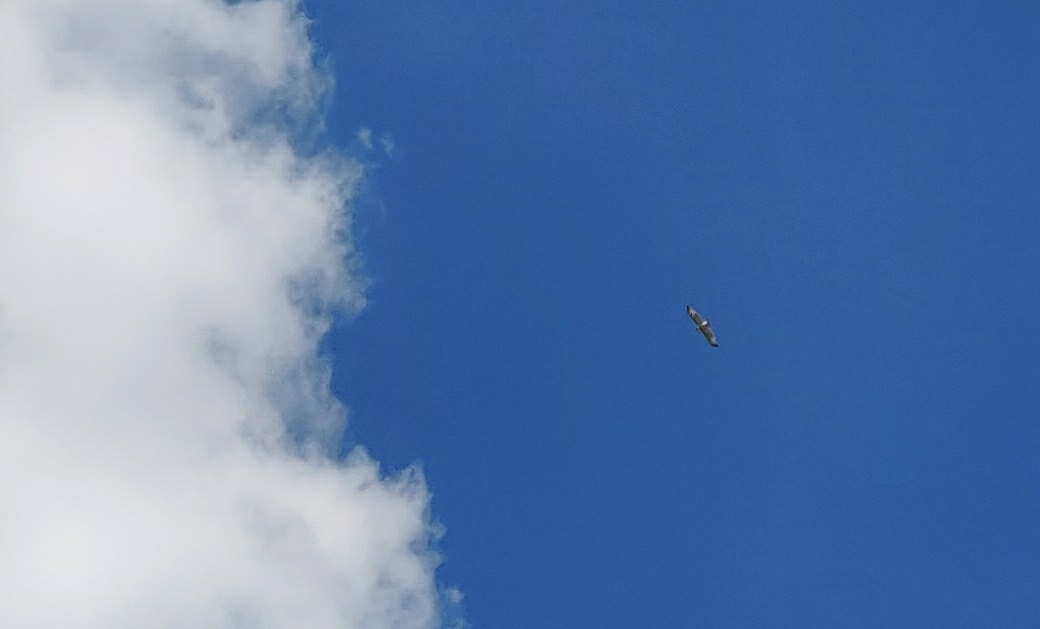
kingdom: Animalia
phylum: Chordata
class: Aves
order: Accipitriformes
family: Accipitridae
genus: Buteo
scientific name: Buteo jamaicensis
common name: Red-tailed hawk
